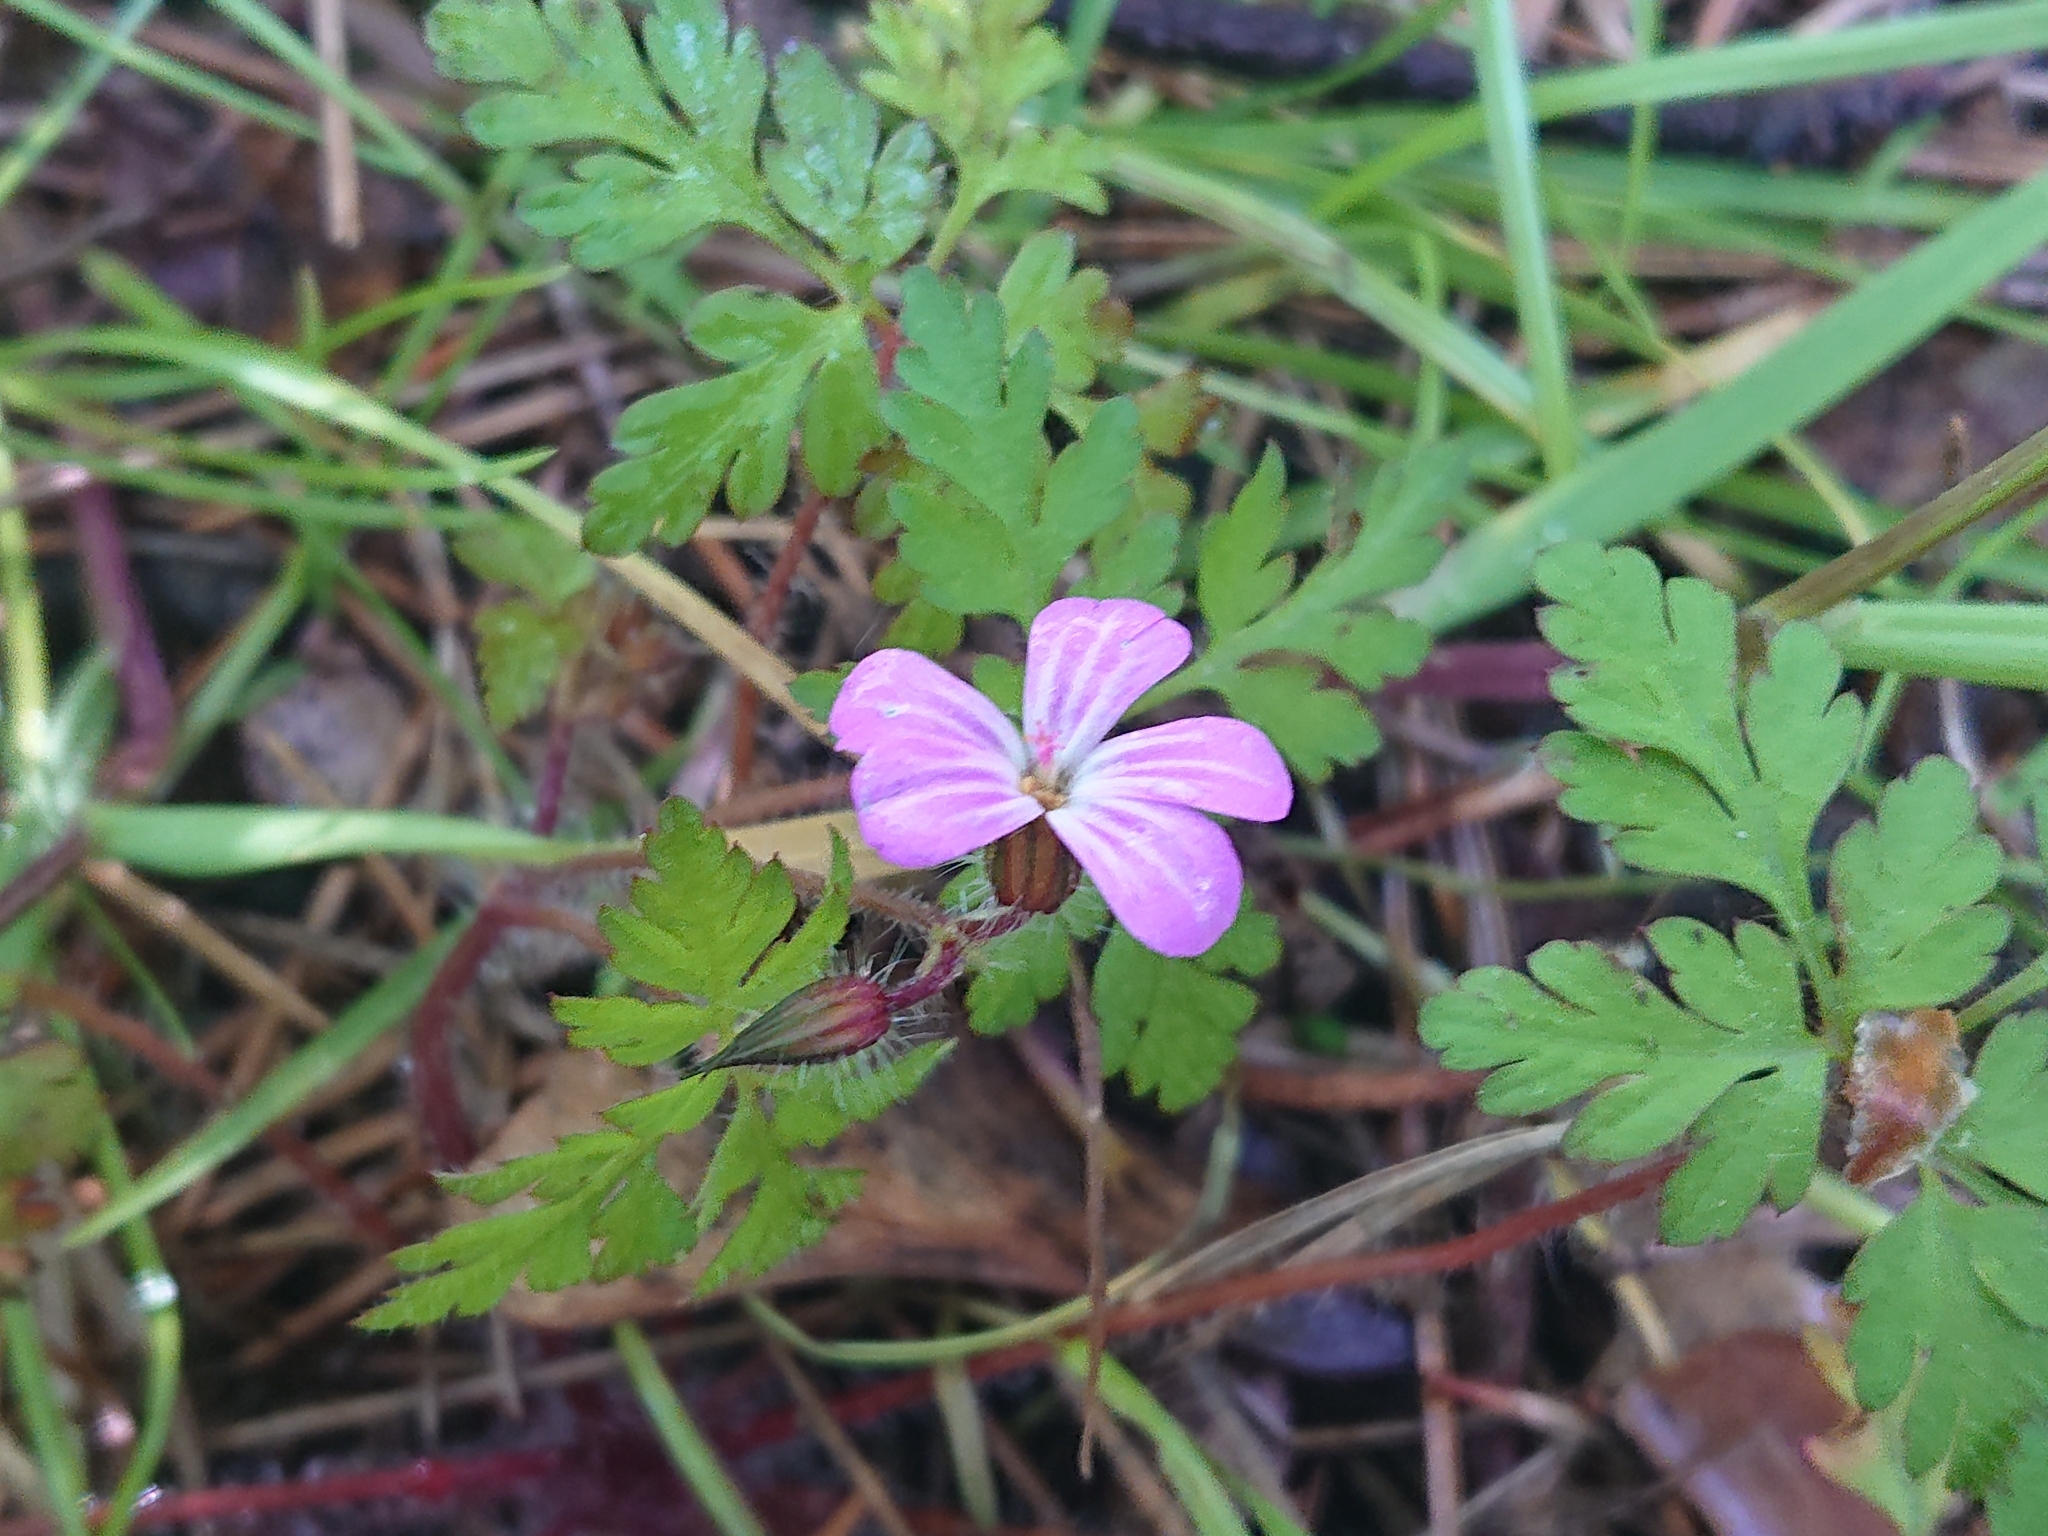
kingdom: Plantae
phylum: Tracheophyta
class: Magnoliopsida
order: Geraniales
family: Geraniaceae
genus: Geranium
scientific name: Geranium robertianum
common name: Herb-robert
